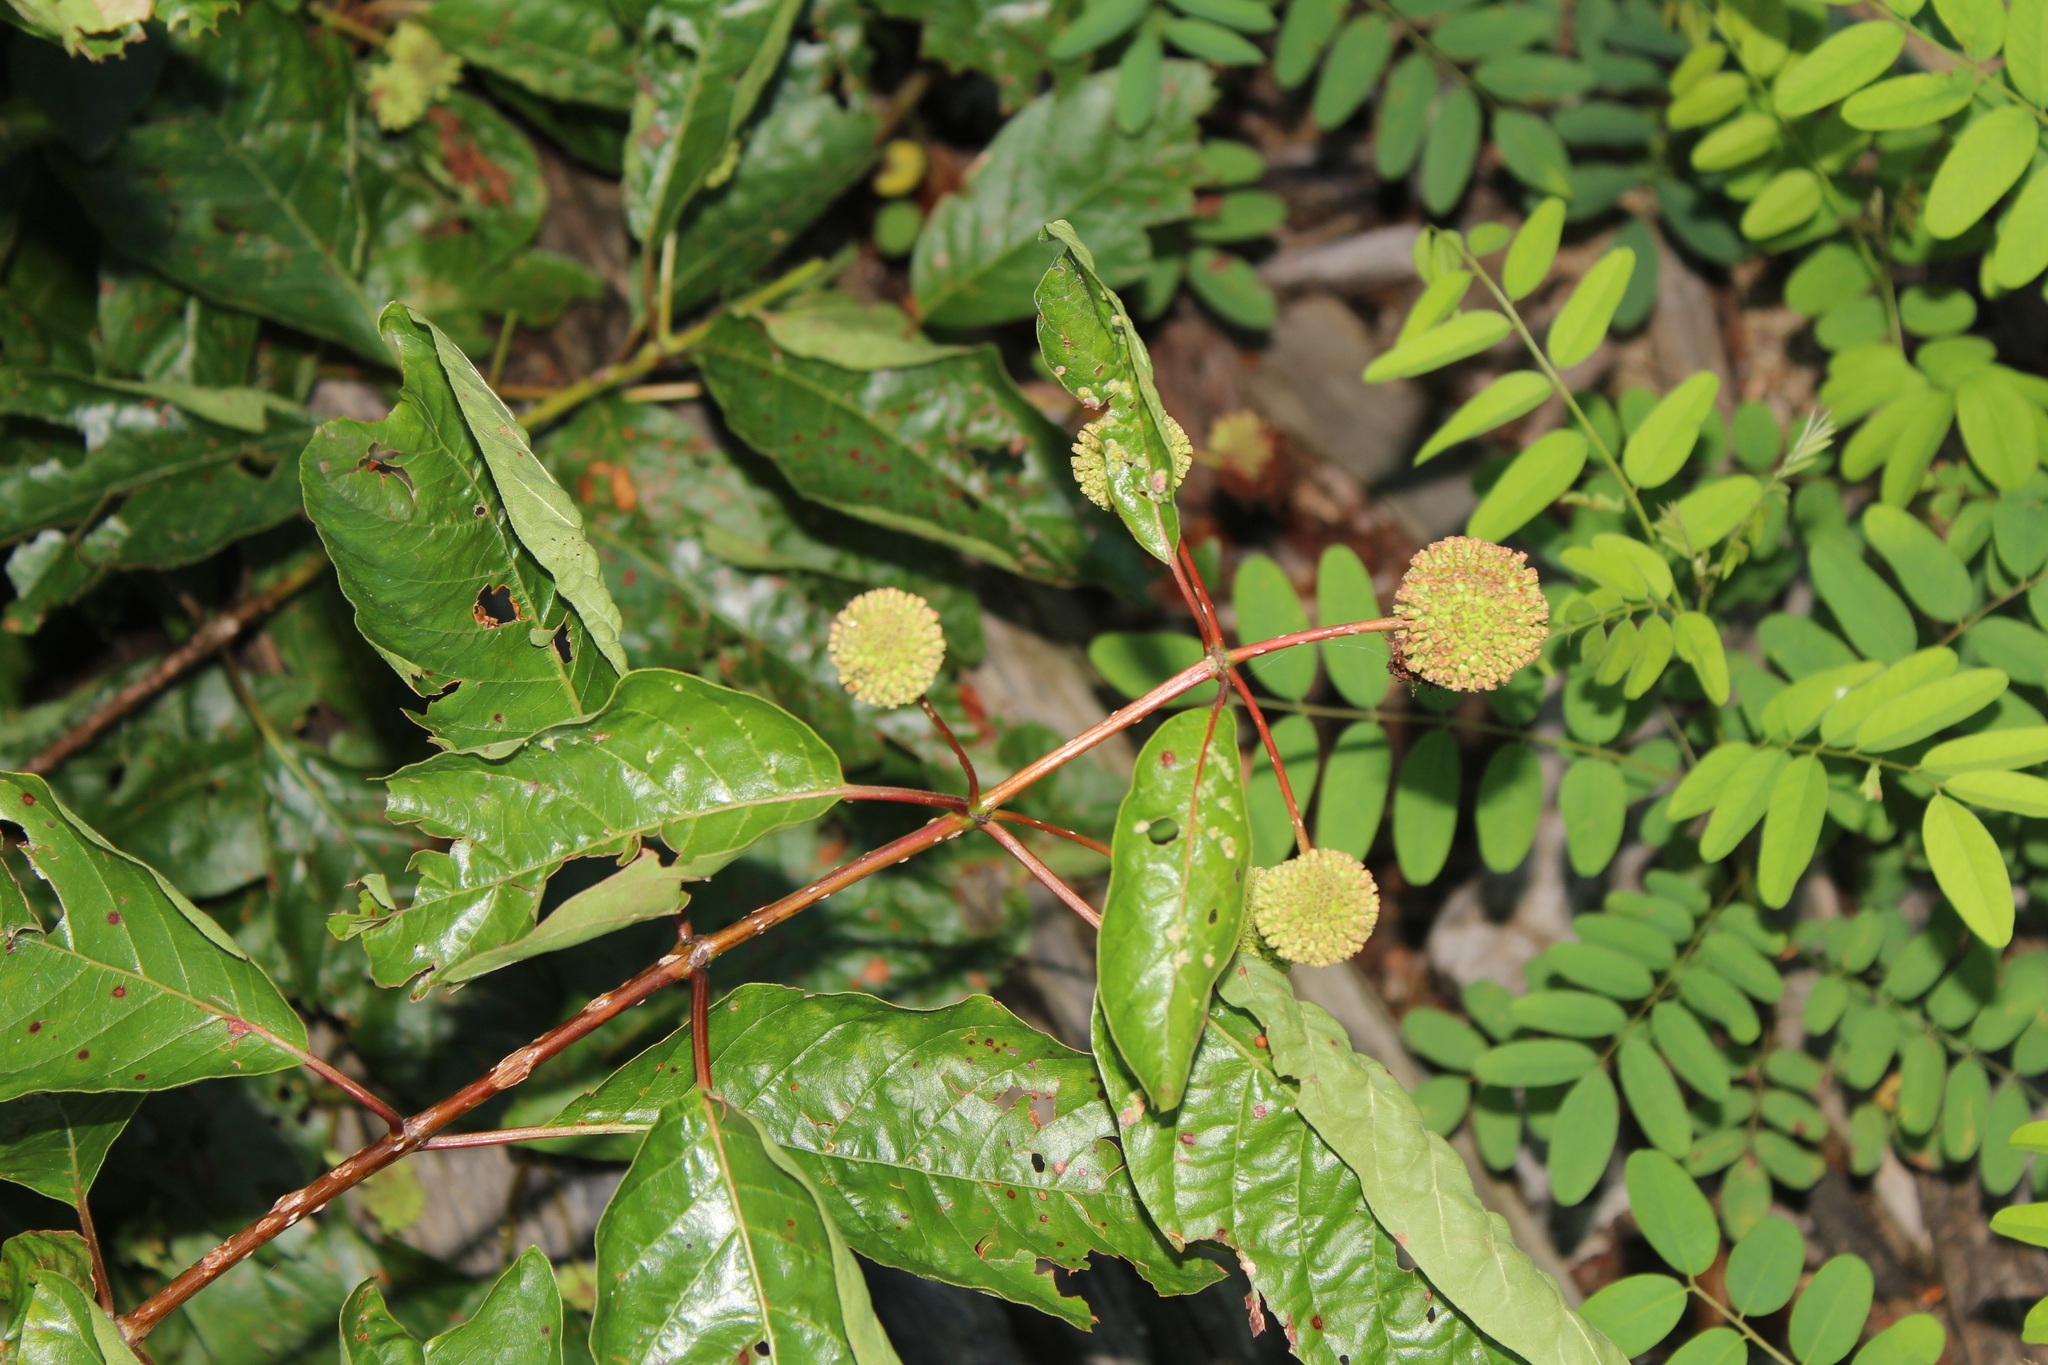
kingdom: Plantae
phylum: Tracheophyta
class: Magnoliopsida
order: Gentianales
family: Rubiaceae
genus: Cephalanthus
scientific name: Cephalanthus occidentalis
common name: Button-willow
